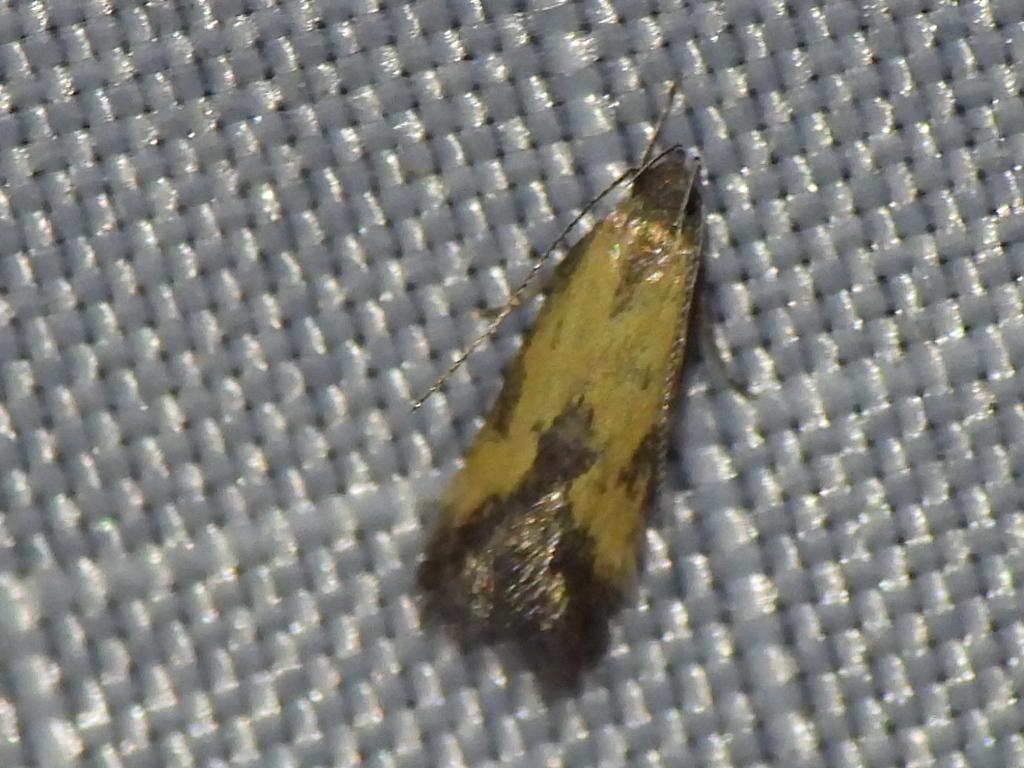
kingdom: Animalia
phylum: Arthropoda
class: Insecta
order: Lepidoptera
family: Momphidae
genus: Triclonella
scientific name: Triclonella bicoloripennis
